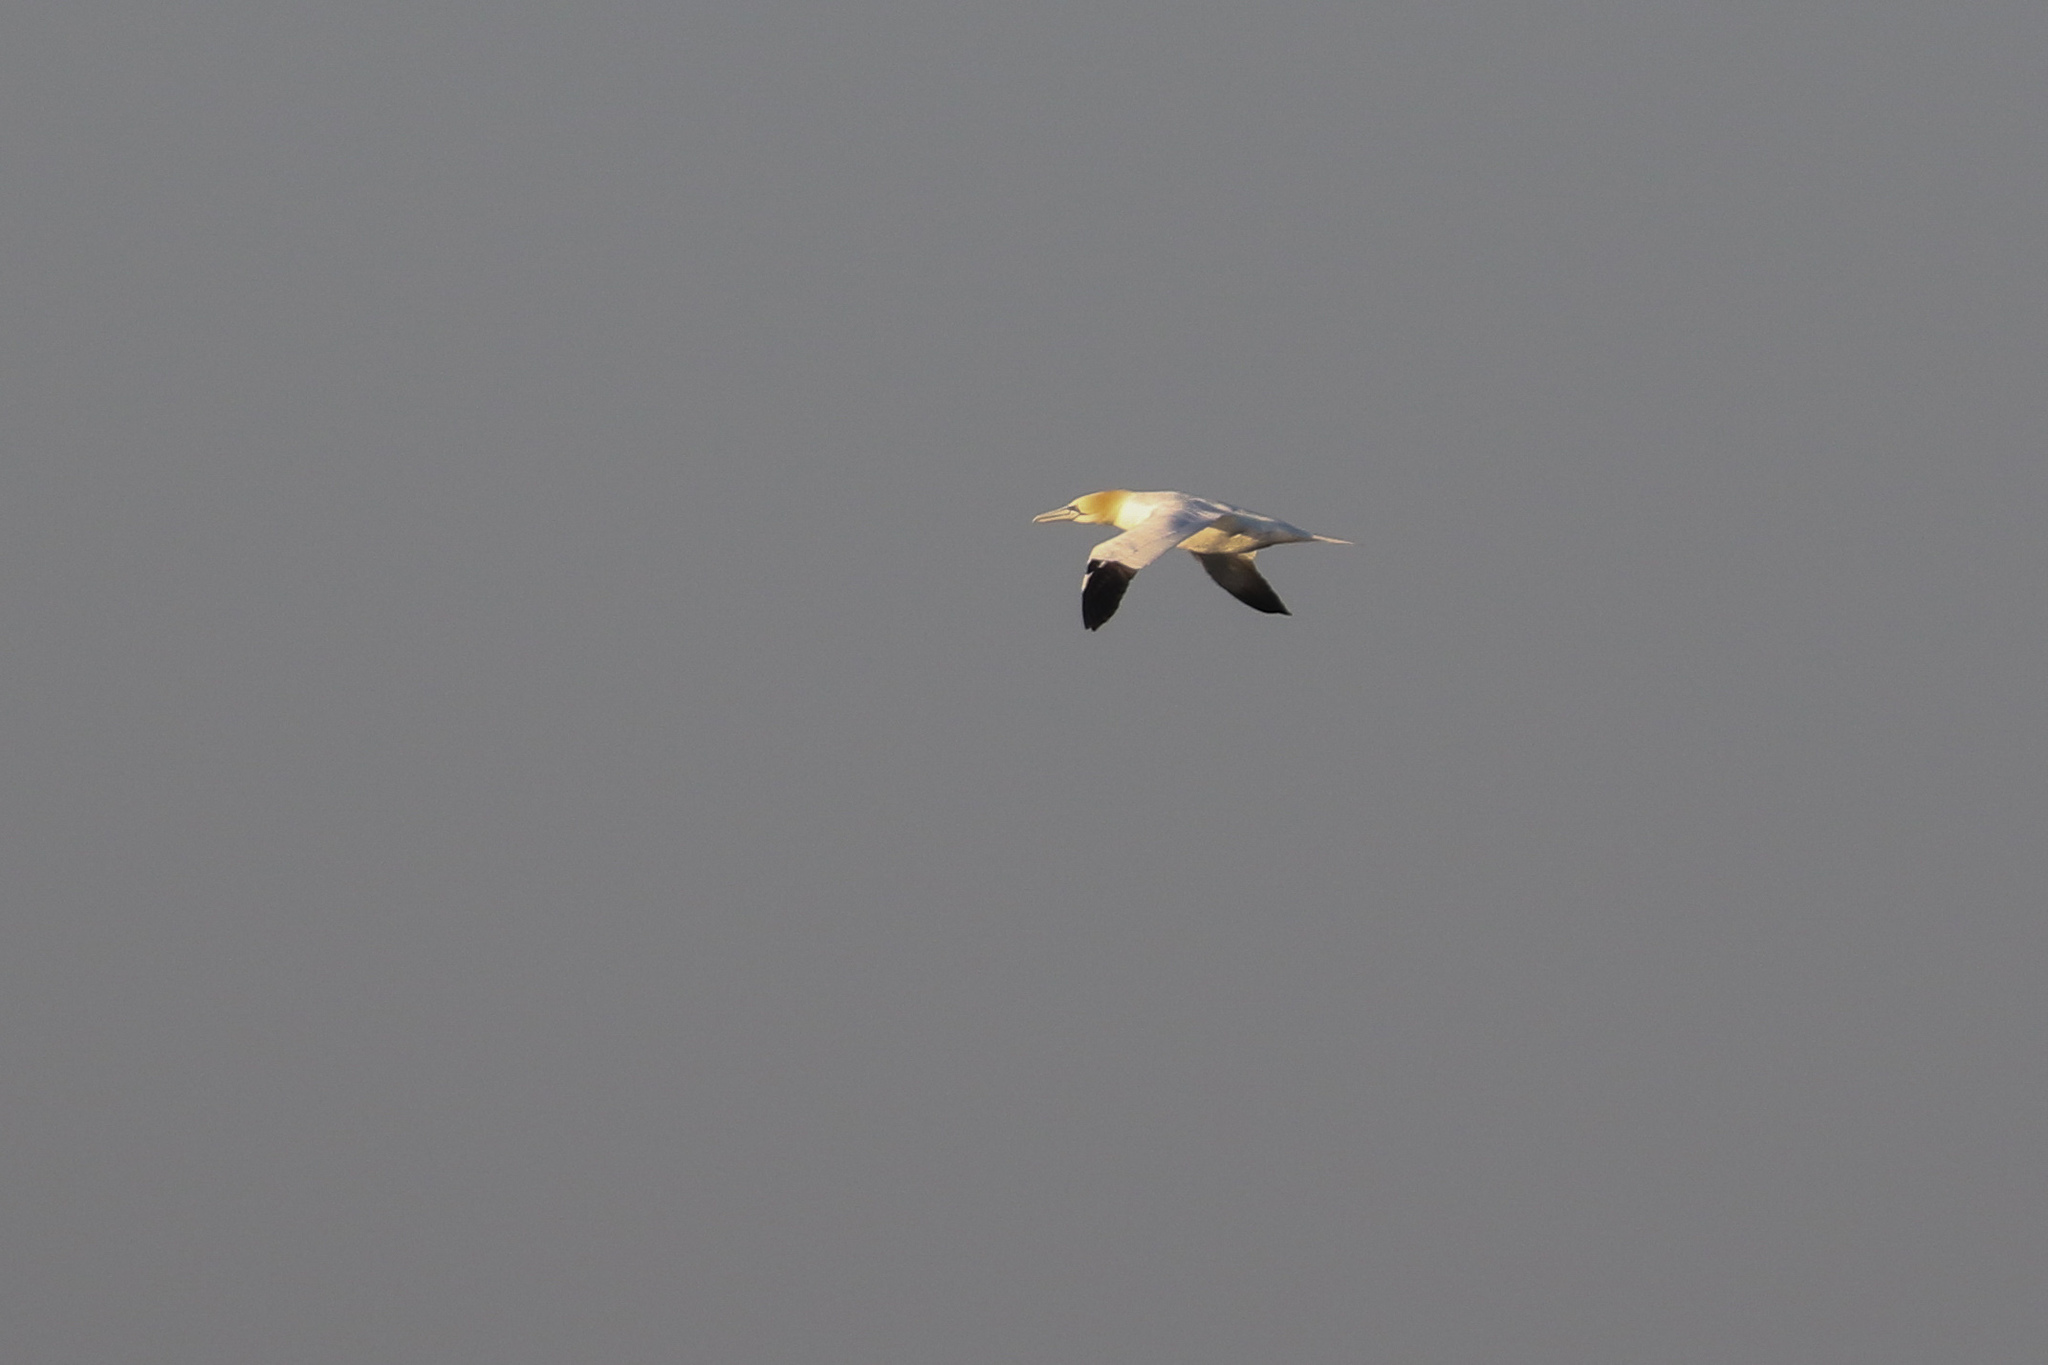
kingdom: Animalia
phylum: Chordata
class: Aves
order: Suliformes
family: Sulidae
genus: Morus
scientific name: Morus bassanus
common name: Northern gannet
